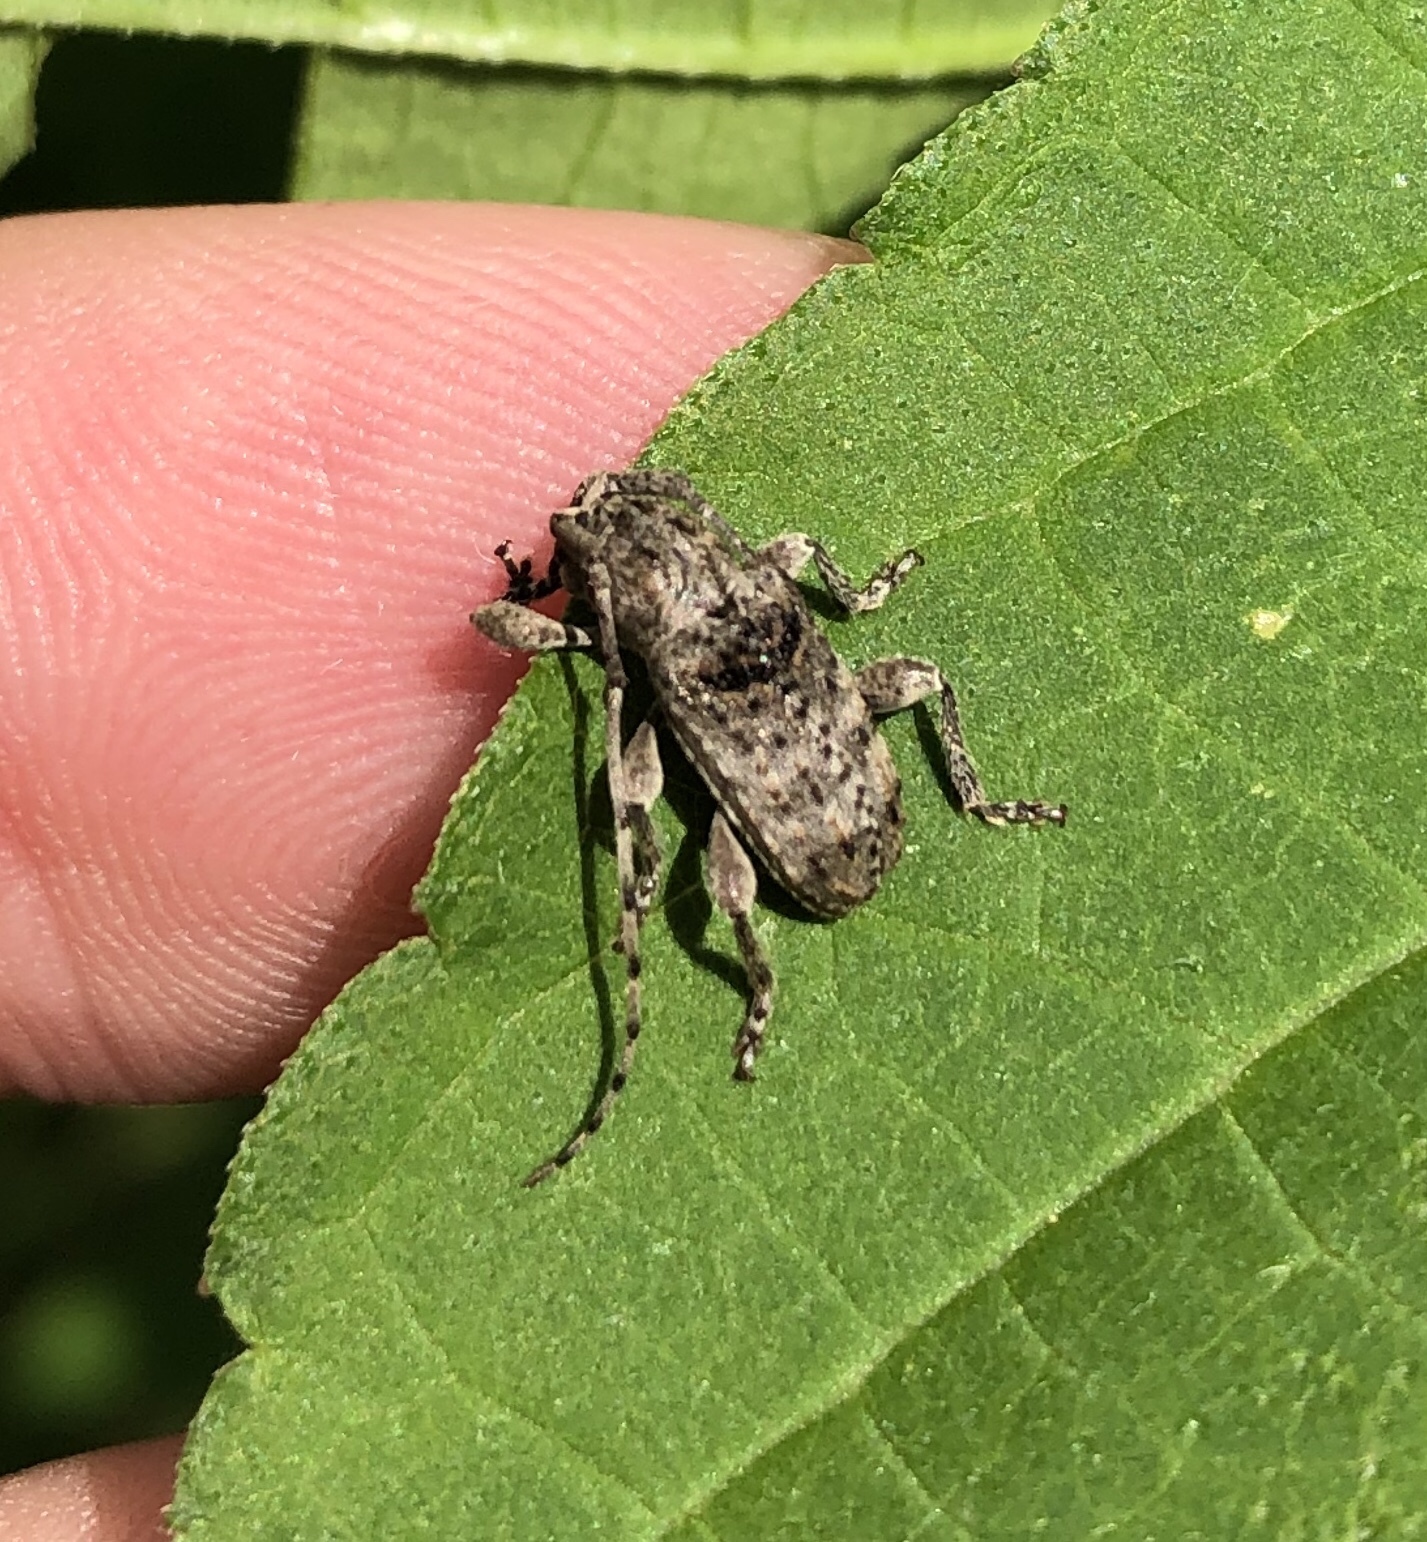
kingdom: Animalia
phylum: Arthropoda
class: Insecta
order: Coleoptera
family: Cerambycidae
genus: Ecyrus
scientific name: Ecyrus dasycerus
